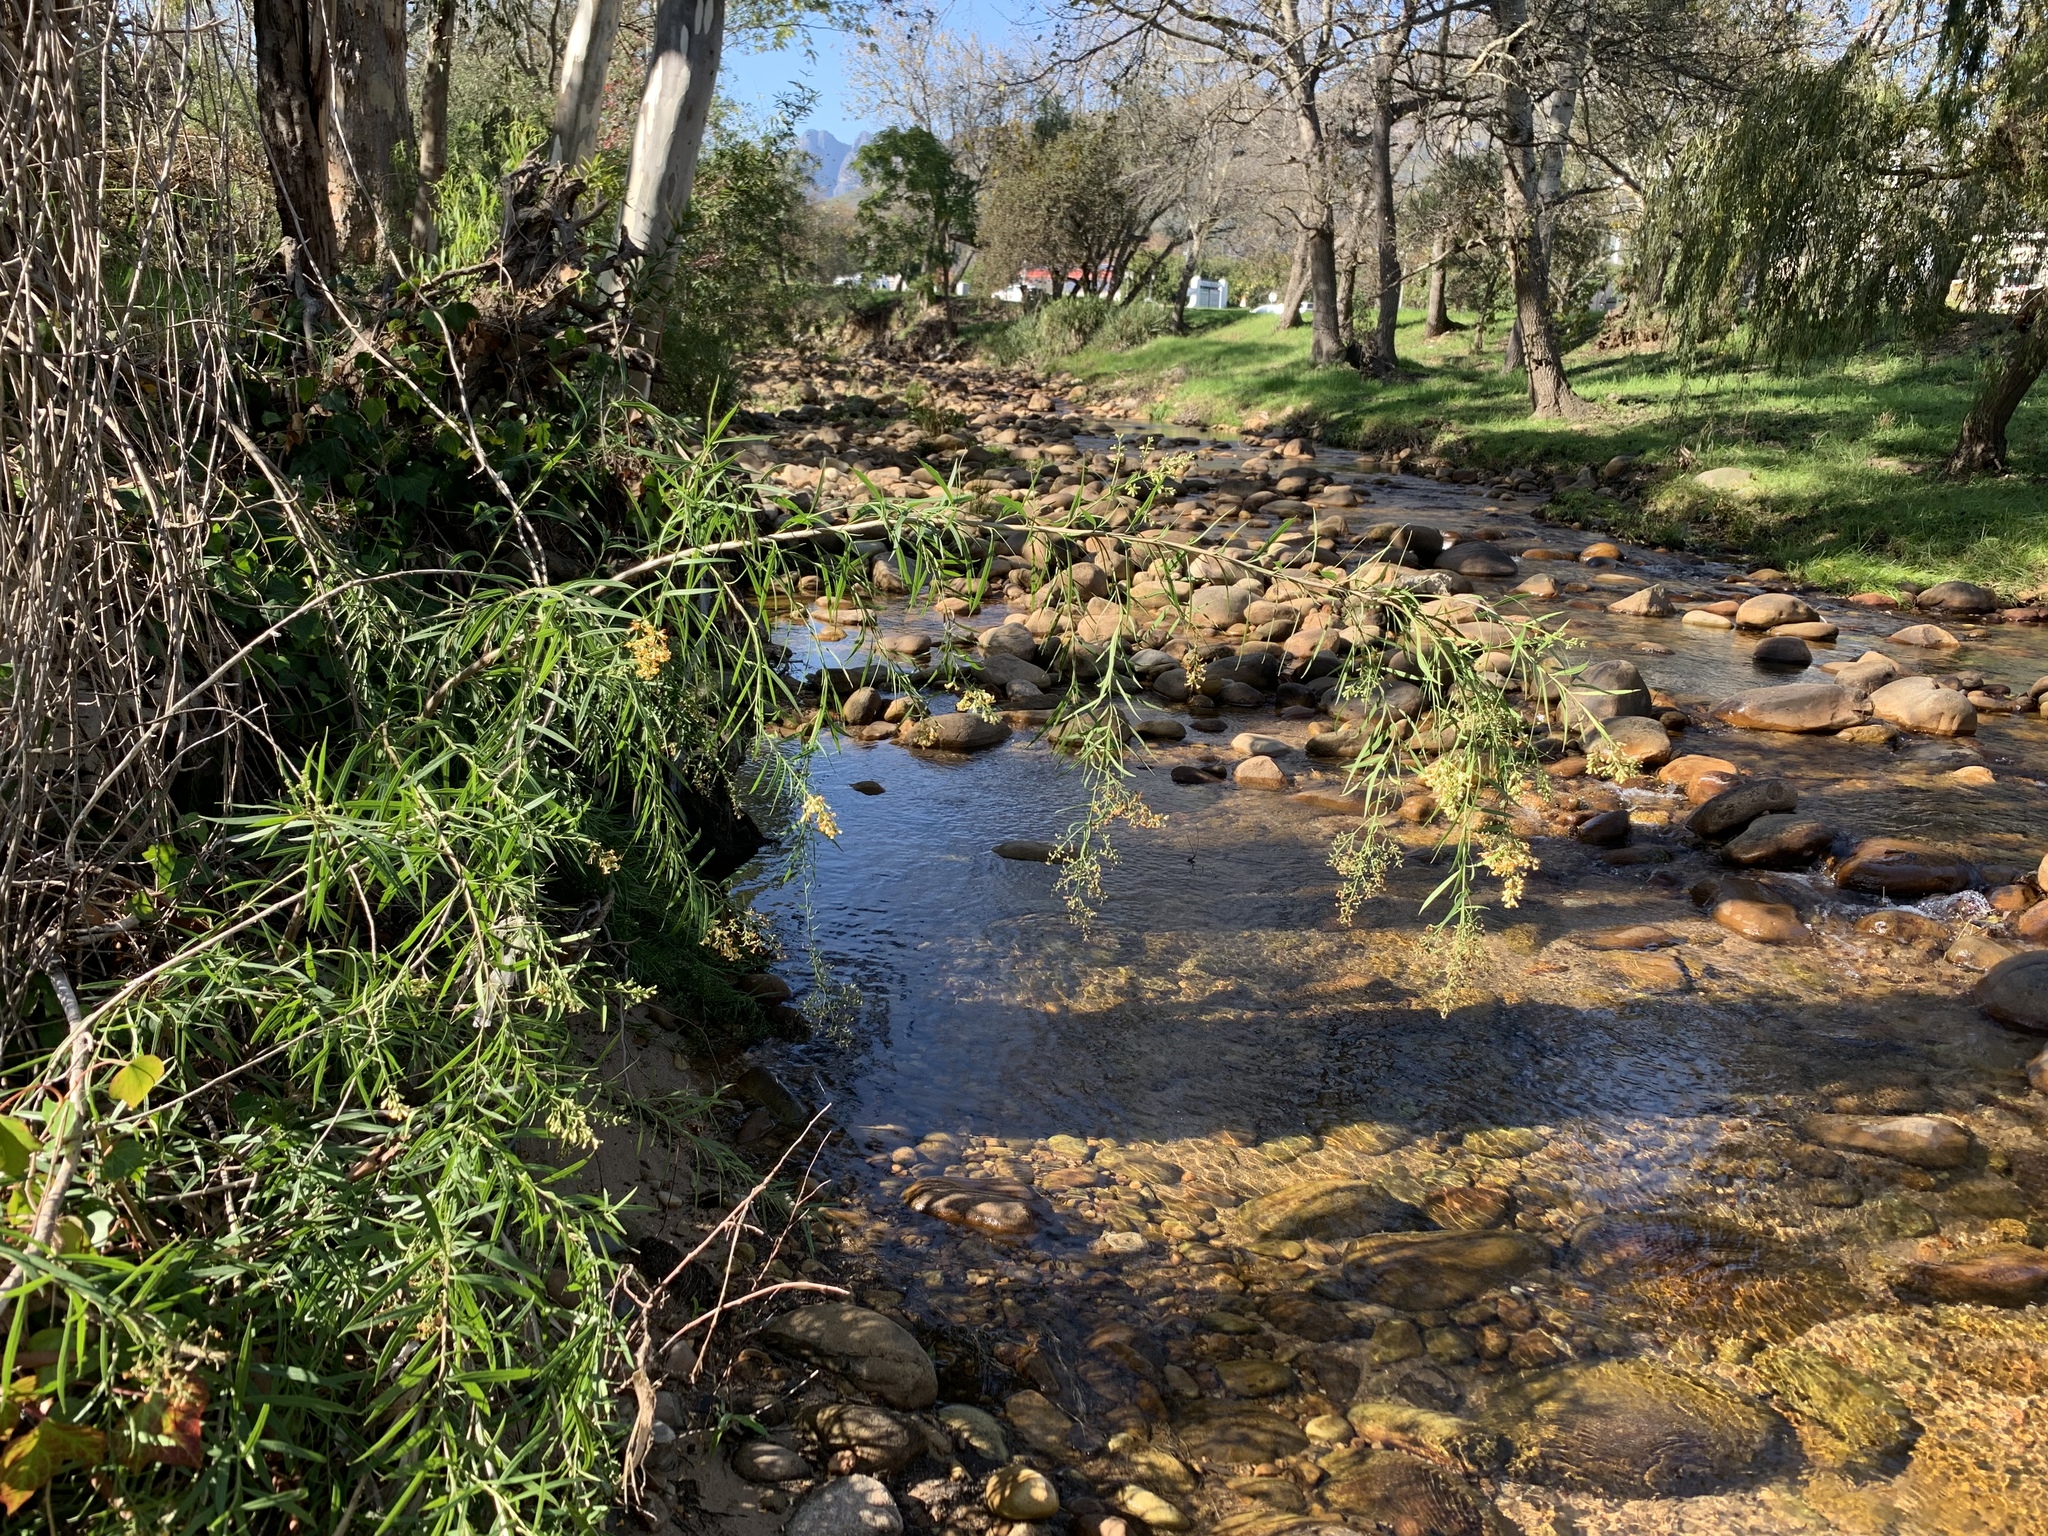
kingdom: Plantae
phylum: Tracheophyta
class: Magnoliopsida
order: Lamiales
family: Scrophulariaceae
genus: Freylinia
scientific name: Freylinia lanceolata
